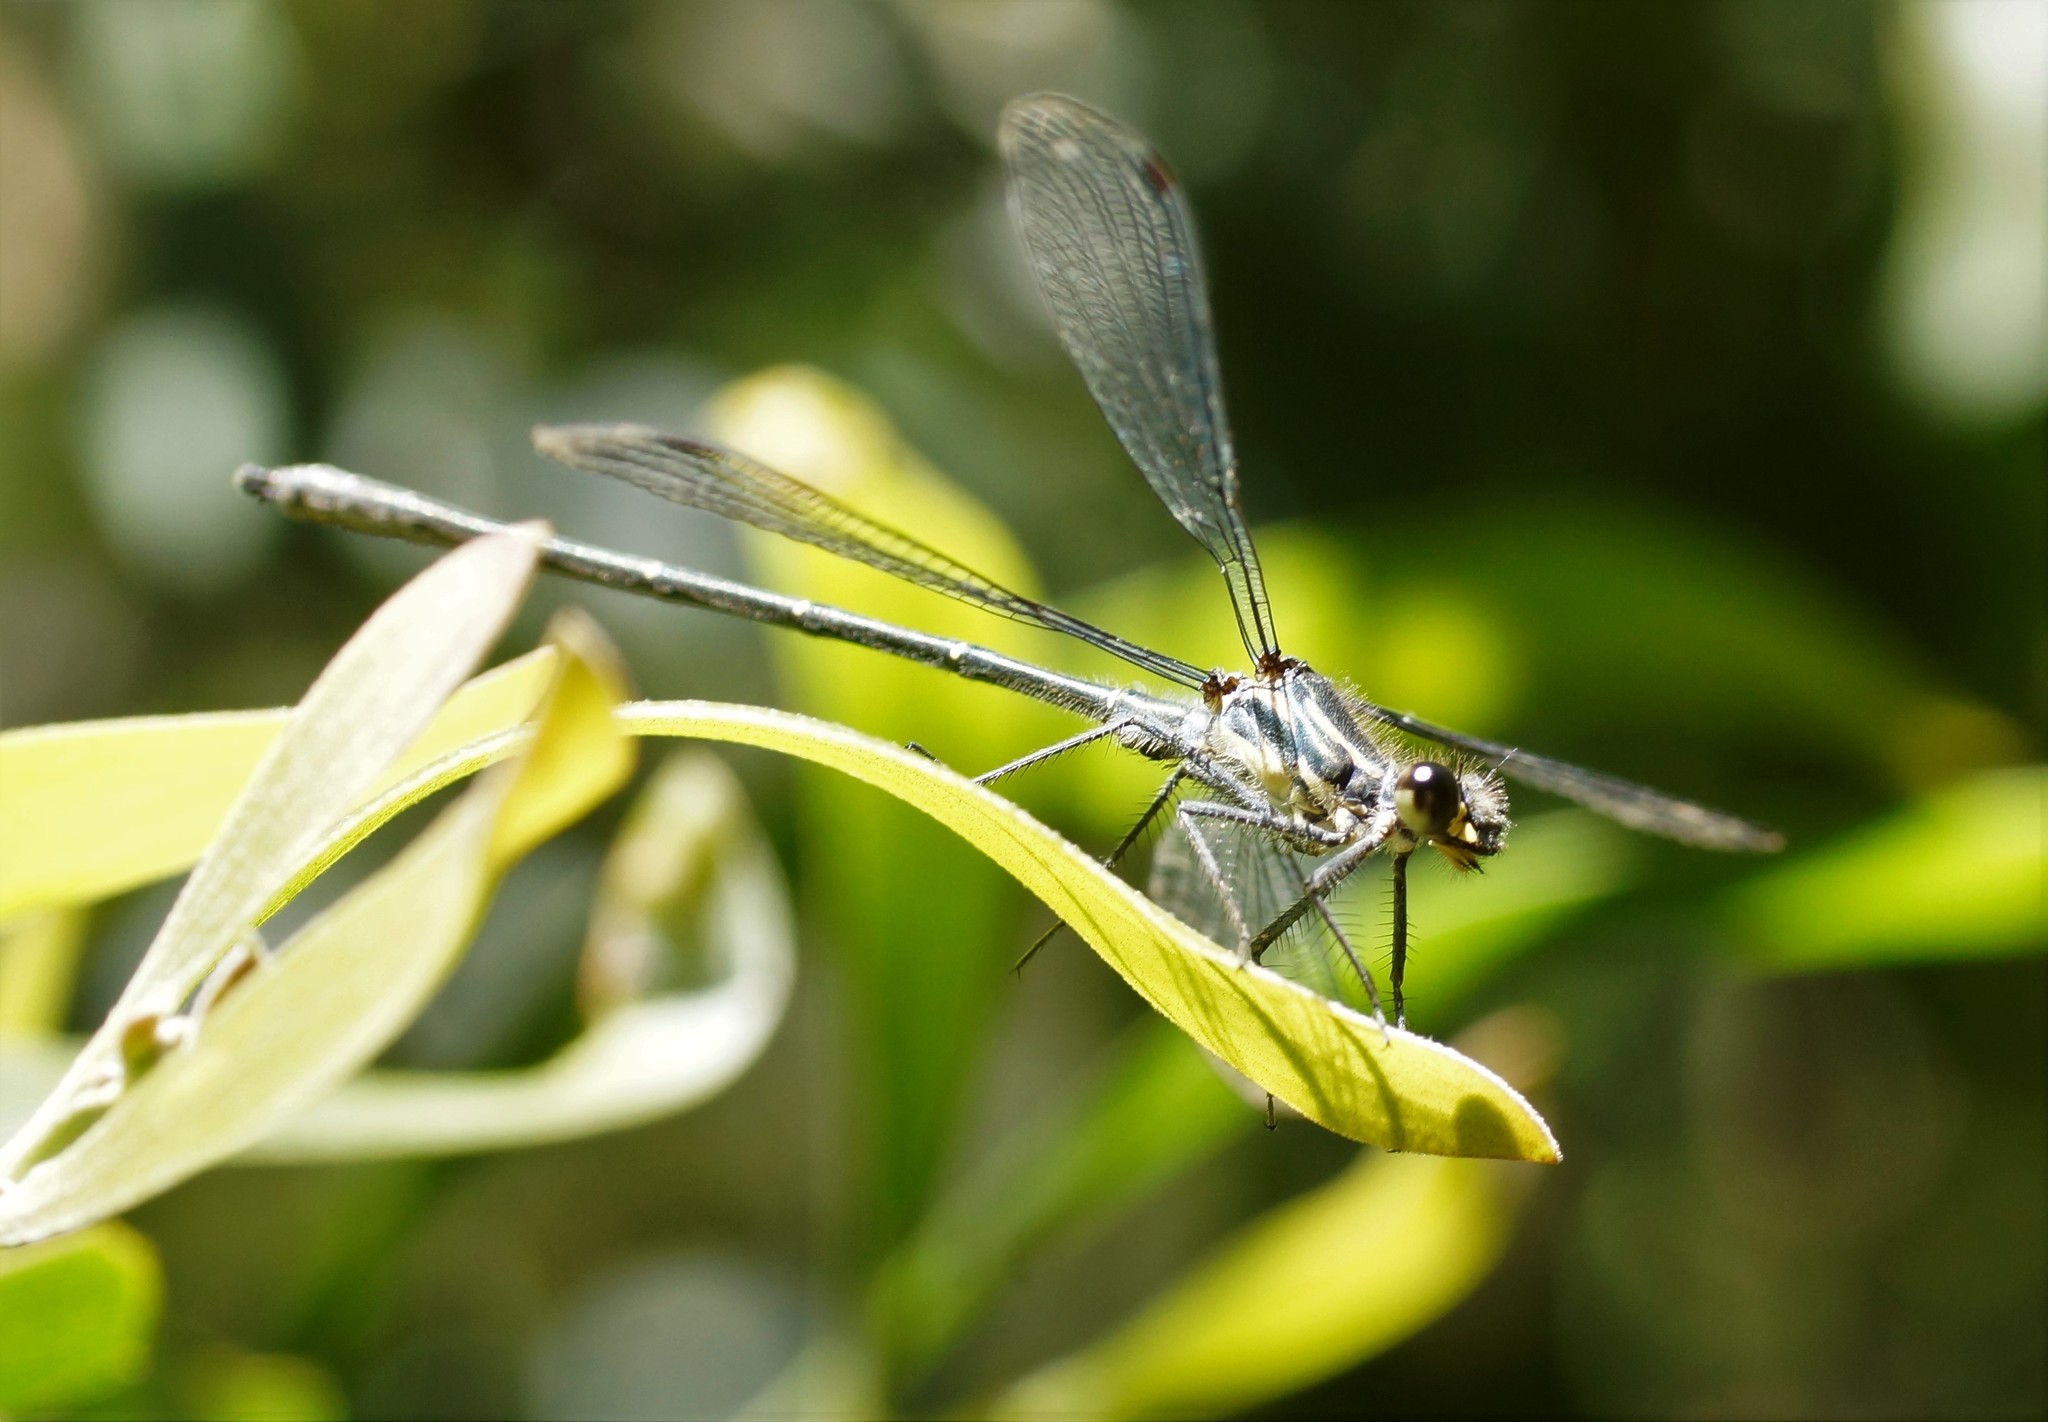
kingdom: Animalia
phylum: Arthropoda
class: Insecta
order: Odonata
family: Argiolestidae
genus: Austroargiolestes
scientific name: Austroargiolestes icteromelas
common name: Common flatwing
